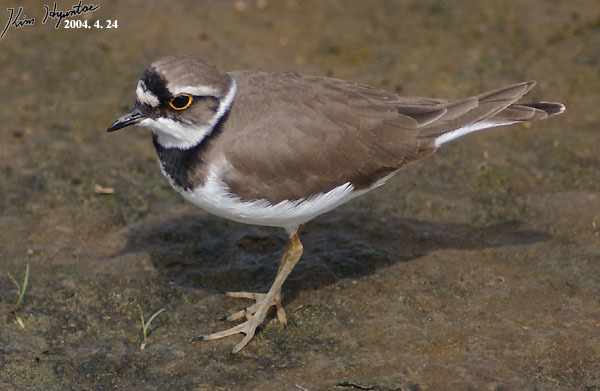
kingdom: Animalia
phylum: Chordata
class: Aves
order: Charadriiformes
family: Charadriidae
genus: Charadrius
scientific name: Charadrius dubius
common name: Little ringed plover
